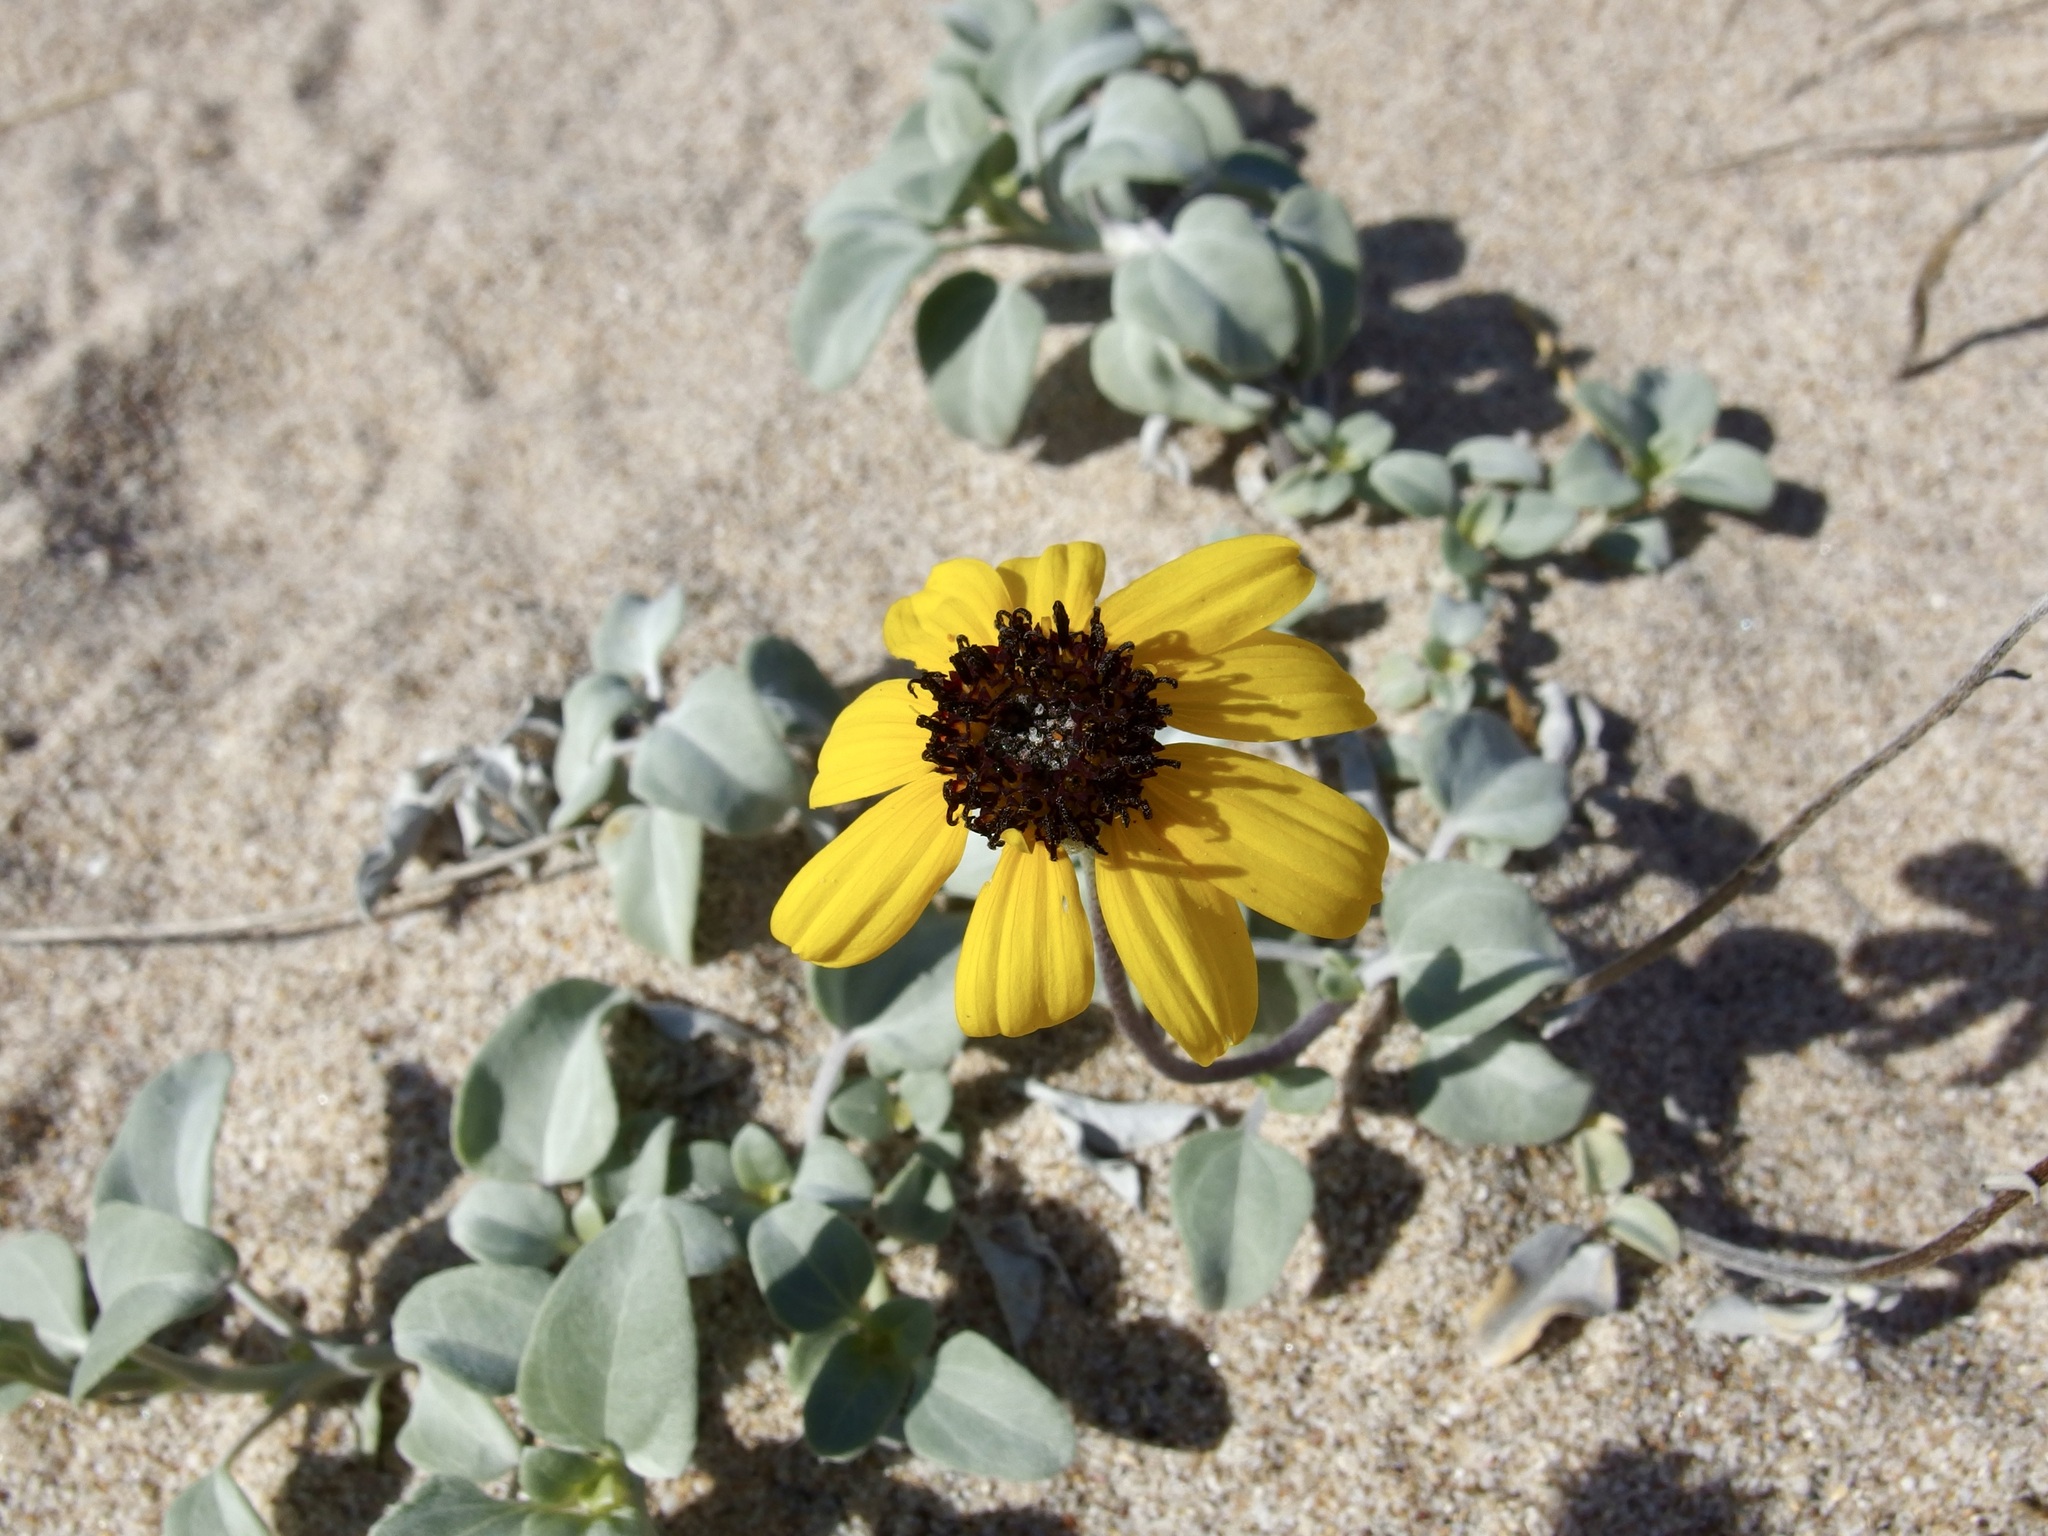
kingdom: Plantae
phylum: Tracheophyta
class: Magnoliopsida
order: Asterales
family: Asteraceae
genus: Helianthus
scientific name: Helianthus niveus
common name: Snowy sunflower
